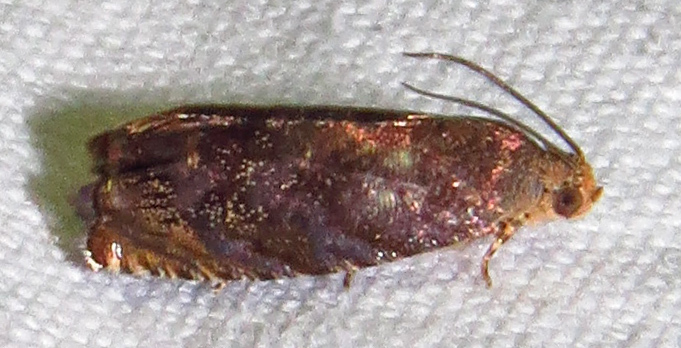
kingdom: Animalia
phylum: Arthropoda
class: Insecta
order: Lepidoptera
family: Tortricidae
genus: Cydia
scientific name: Cydia caryana
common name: Hickory shuckworm moth
